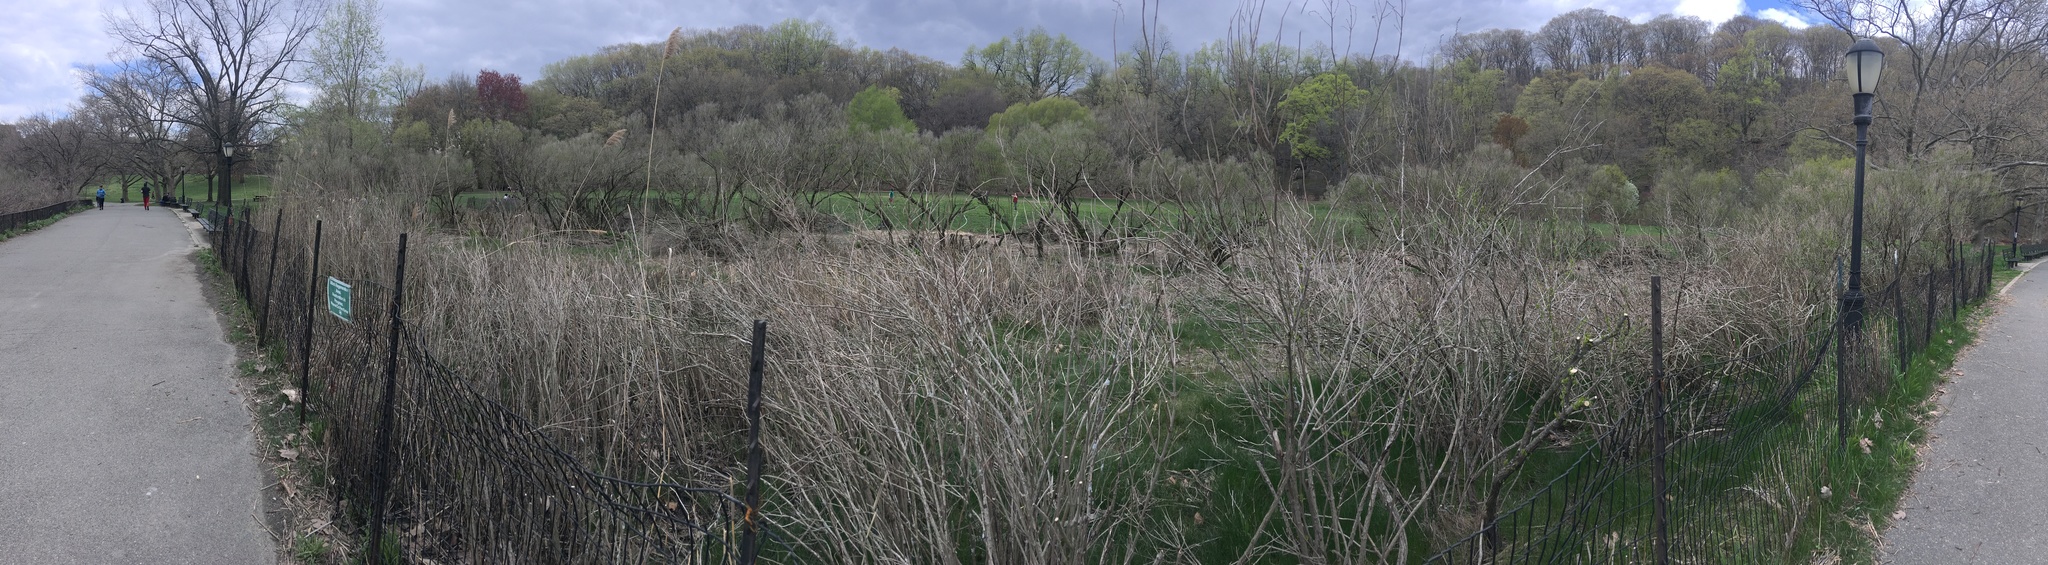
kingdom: Plantae
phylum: Tracheophyta
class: Magnoliopsida
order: Asterales
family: Asteraceae
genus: Baccharis
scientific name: Baccharis halimifolia
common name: Eastern baccharis
